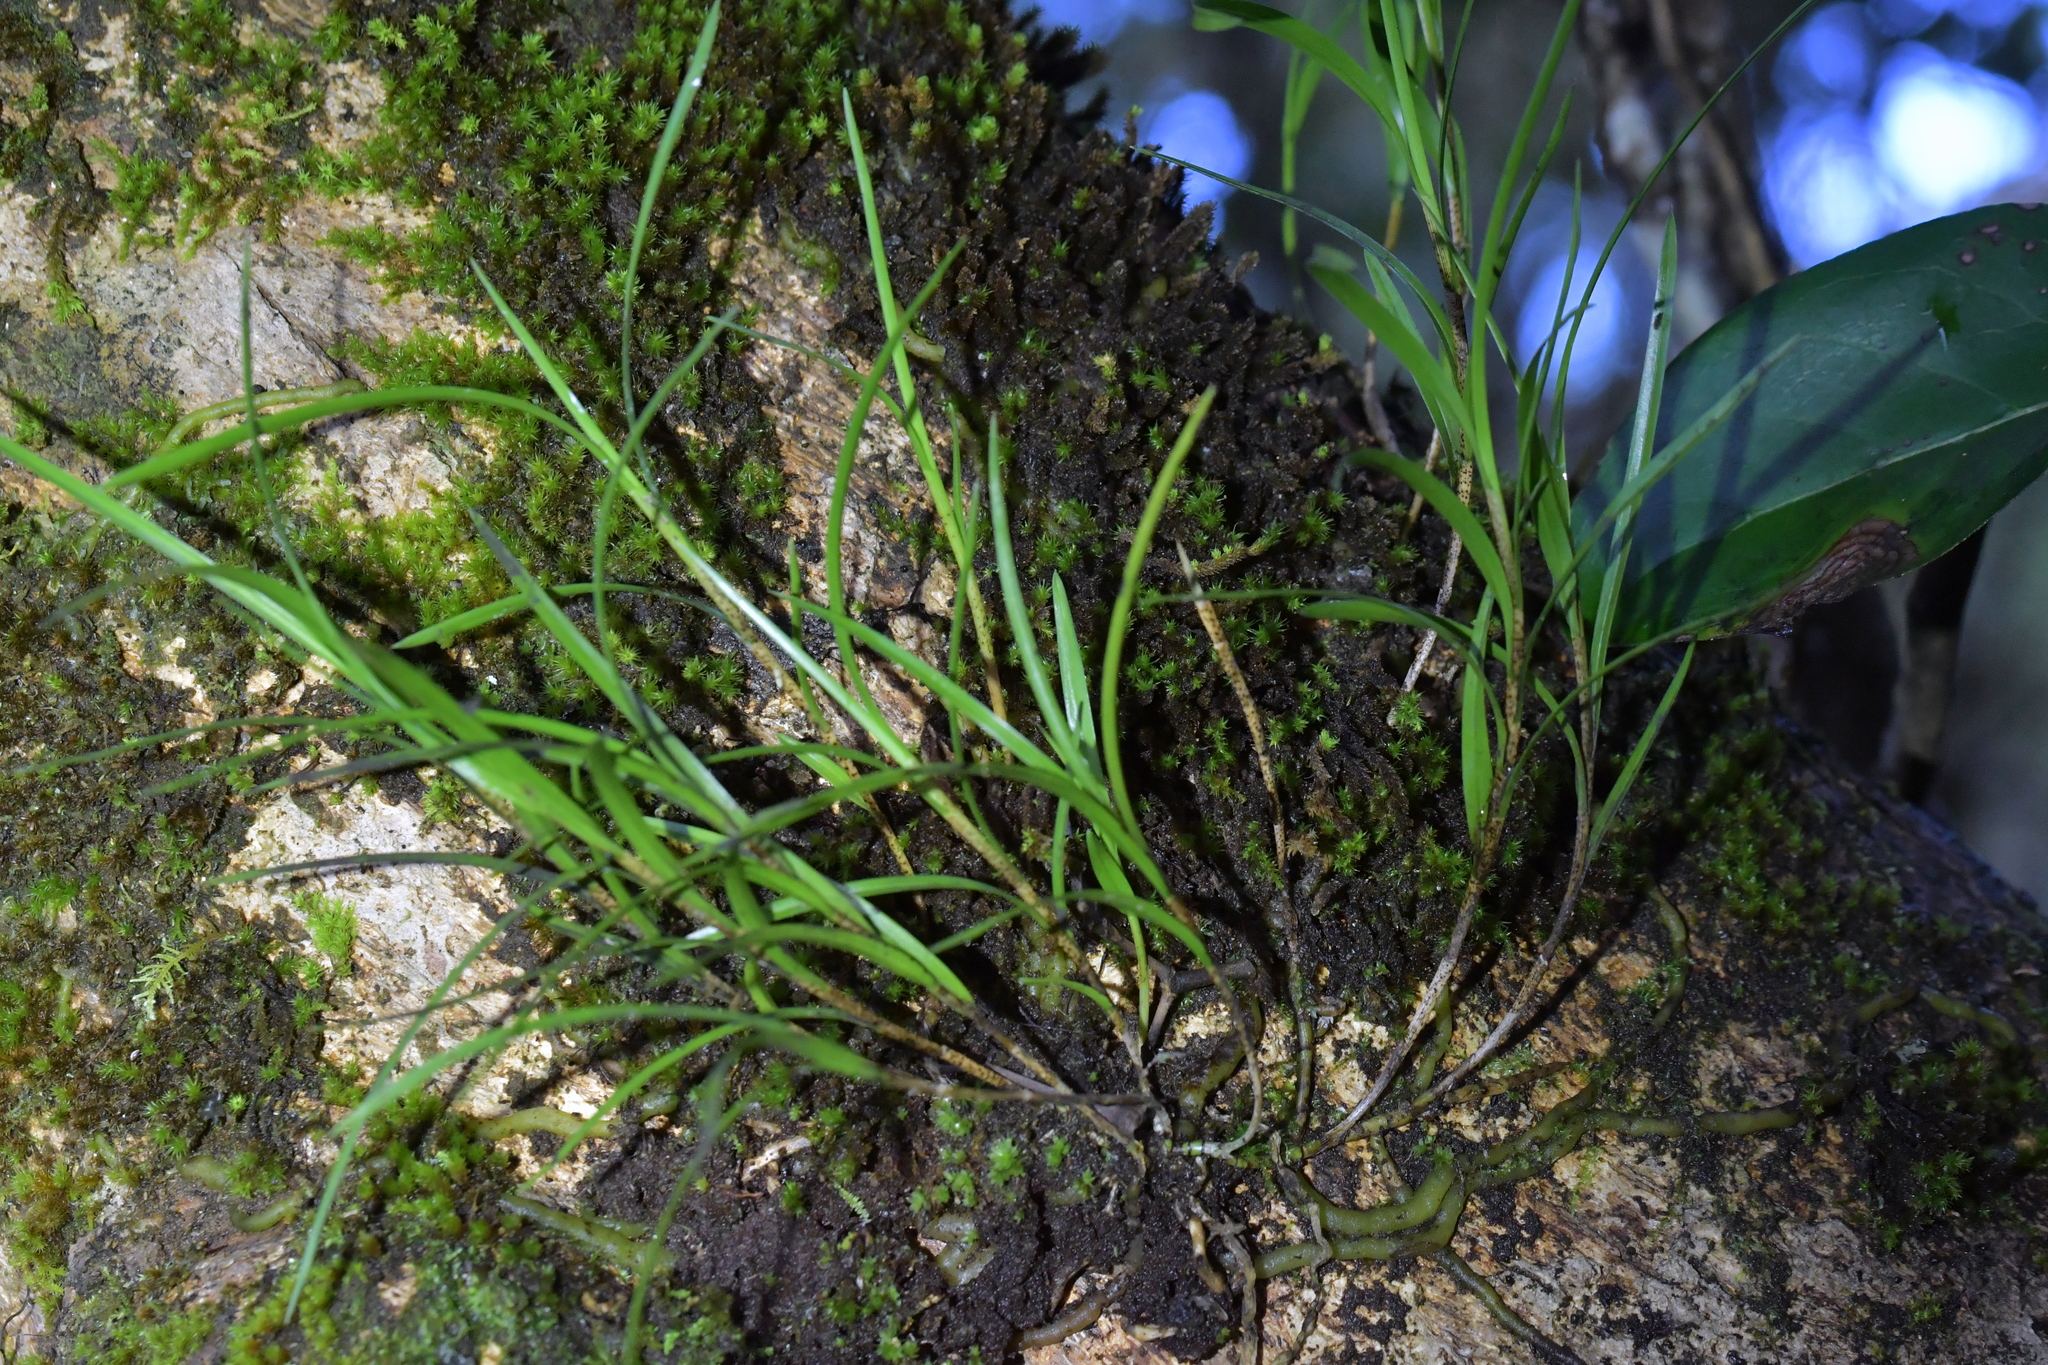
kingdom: Plantae
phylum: Tracheophyta
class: Liliopsida
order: Asparagales
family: Orchidaceae
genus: Earina
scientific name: Earina mucronata
